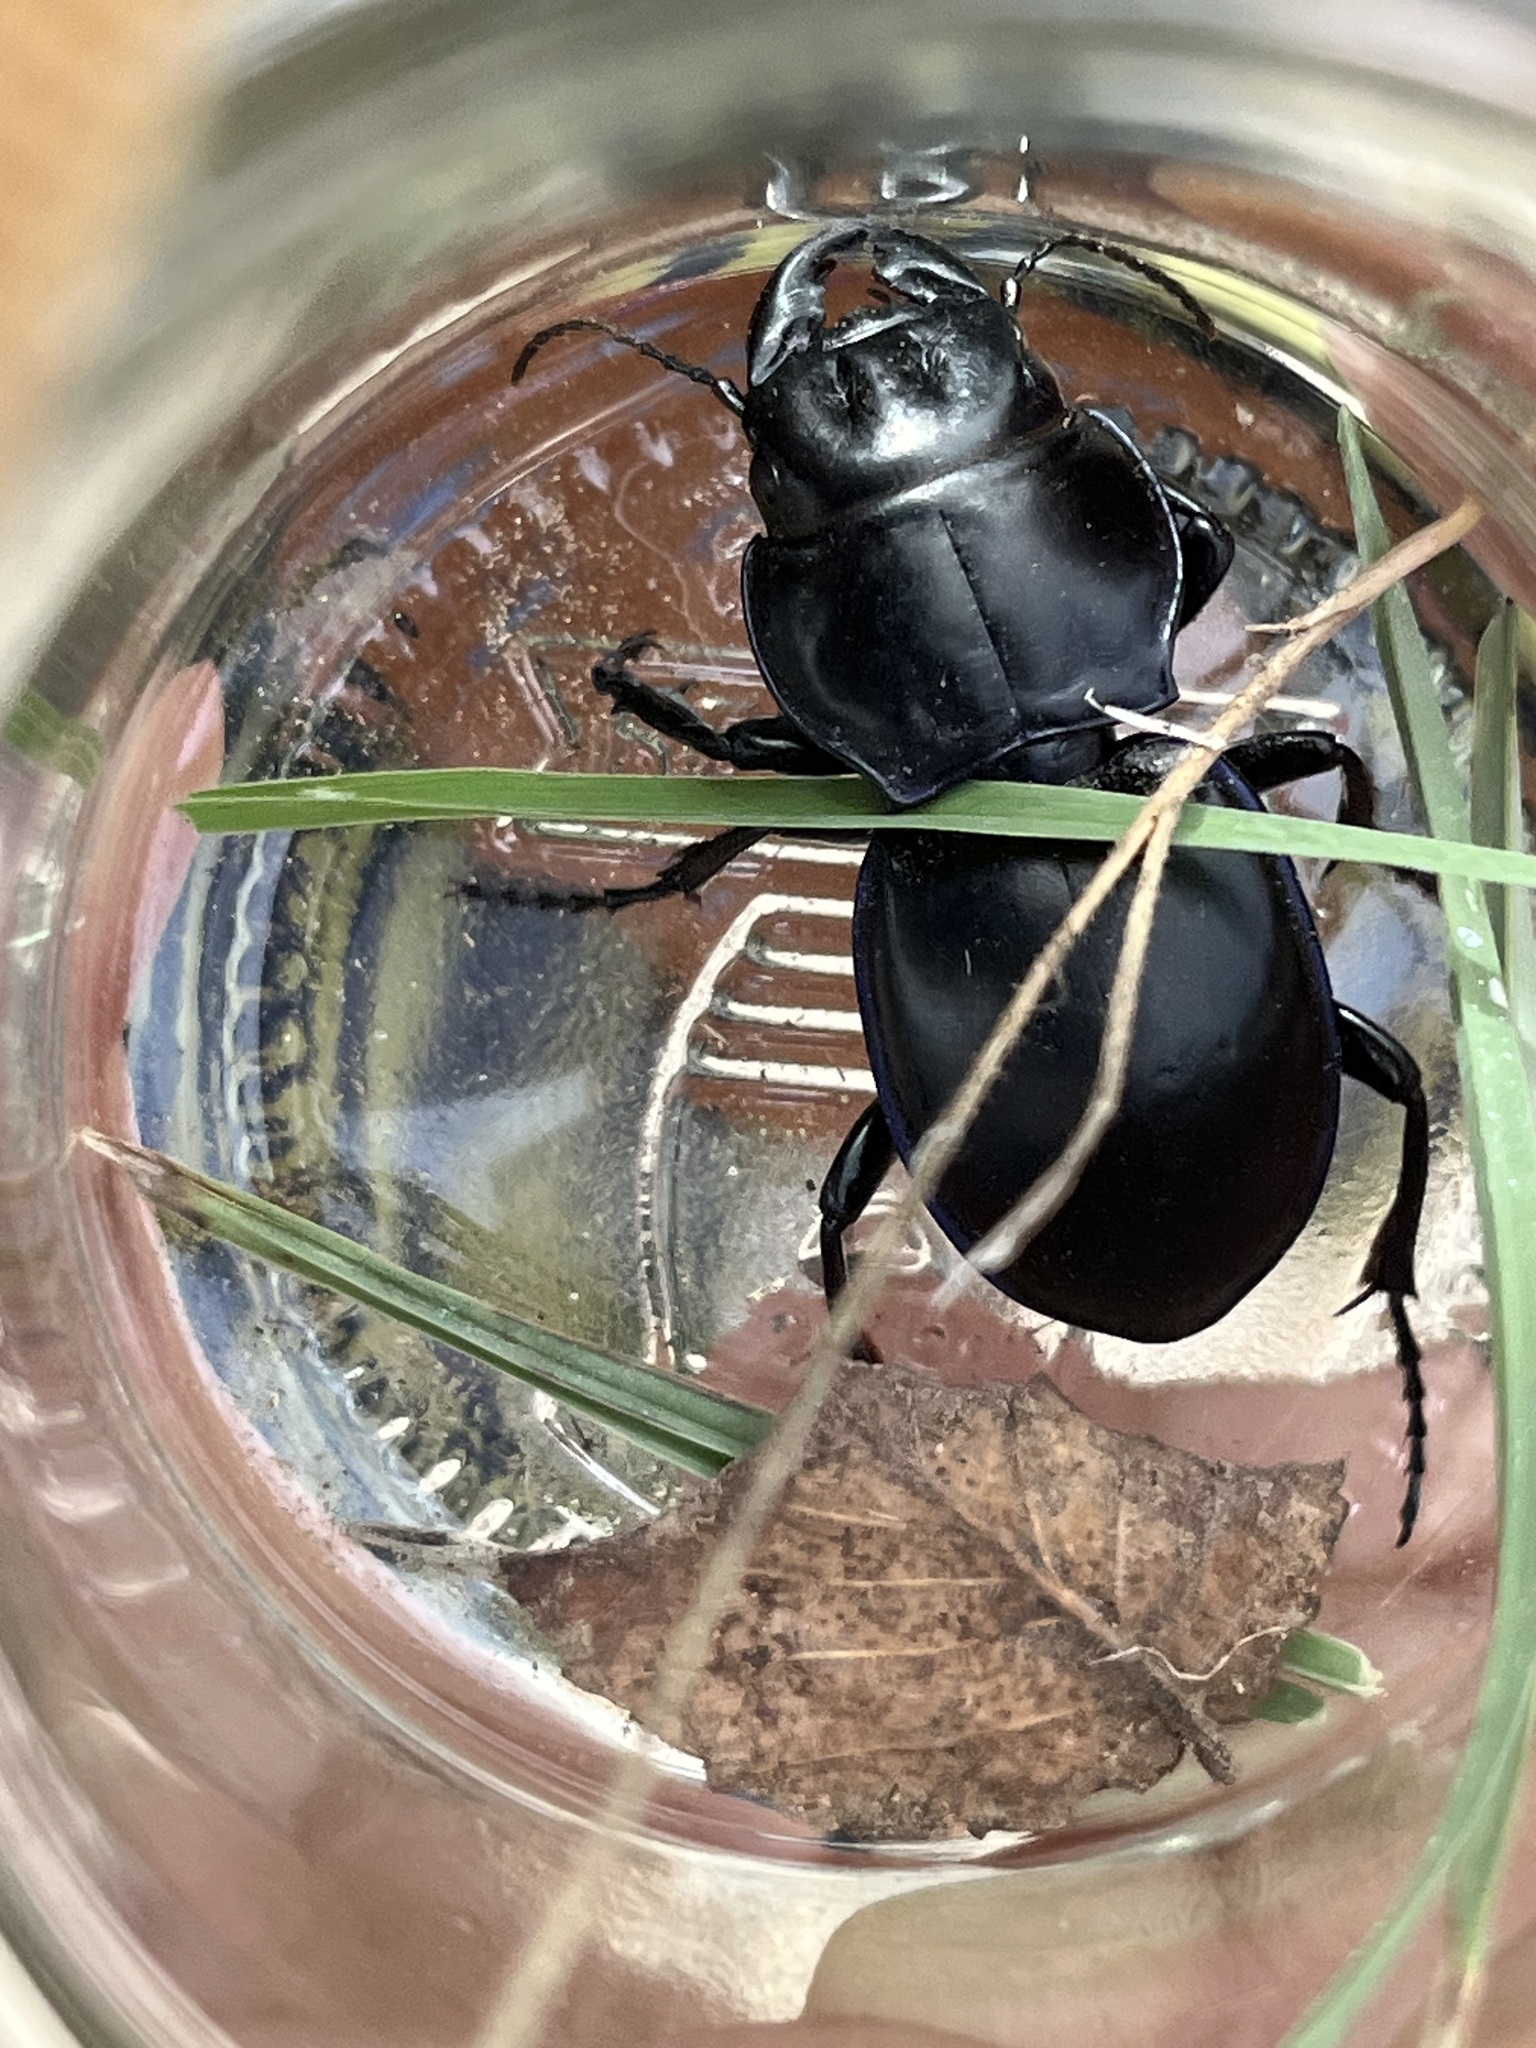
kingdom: Animalia
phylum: Arthropoda
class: Insecta
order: Coleoptera
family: Carabidae
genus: Pasimachus
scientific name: Pasimachus californicus
